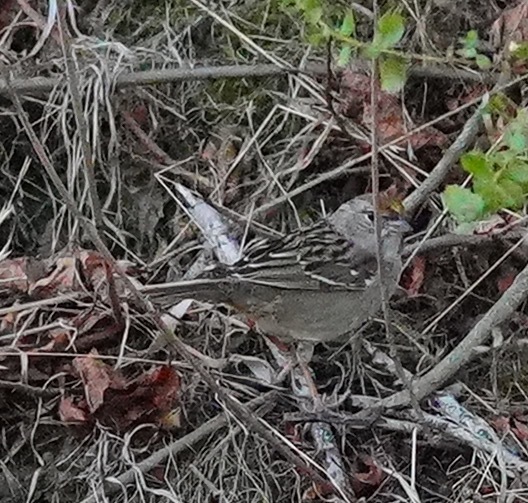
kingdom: Animalia
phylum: Chordata
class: Aves
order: Passeriformes
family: Passerellidae
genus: Zonotrichia
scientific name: Zonotrichia atricapilla
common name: Golden-crowned sparrow
